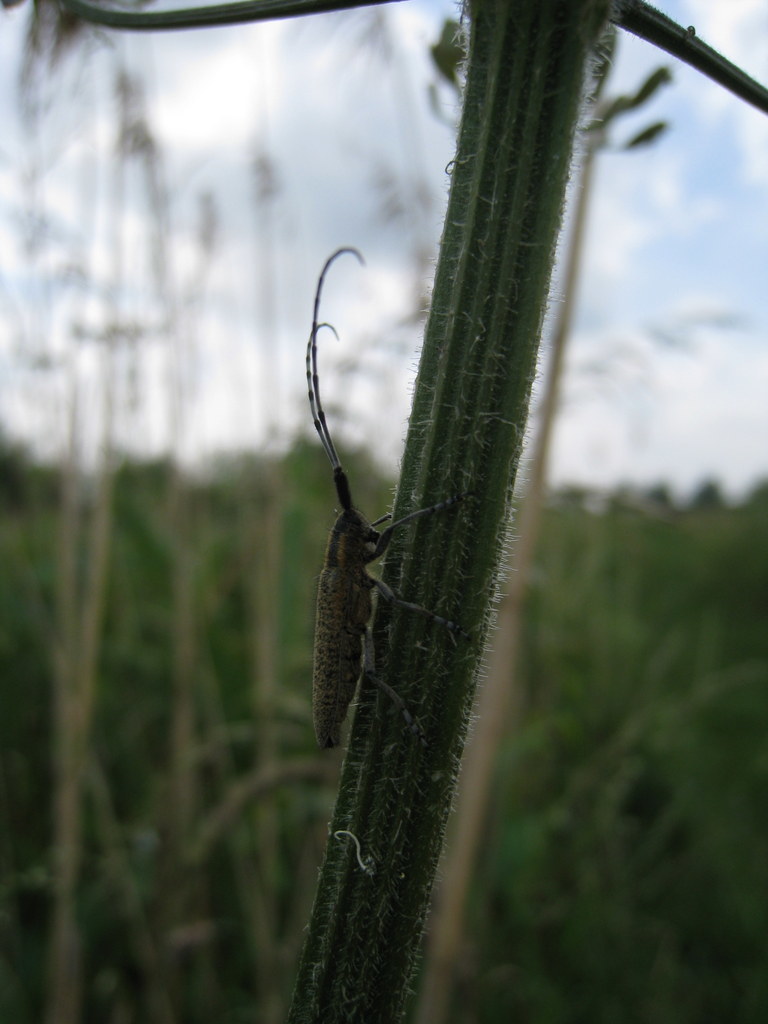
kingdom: Animalia
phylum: Arthropoda
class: Insecta
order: Coleoptera
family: Cerambycidae
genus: Agapanthia
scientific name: Agapanthia villosoviridescens
